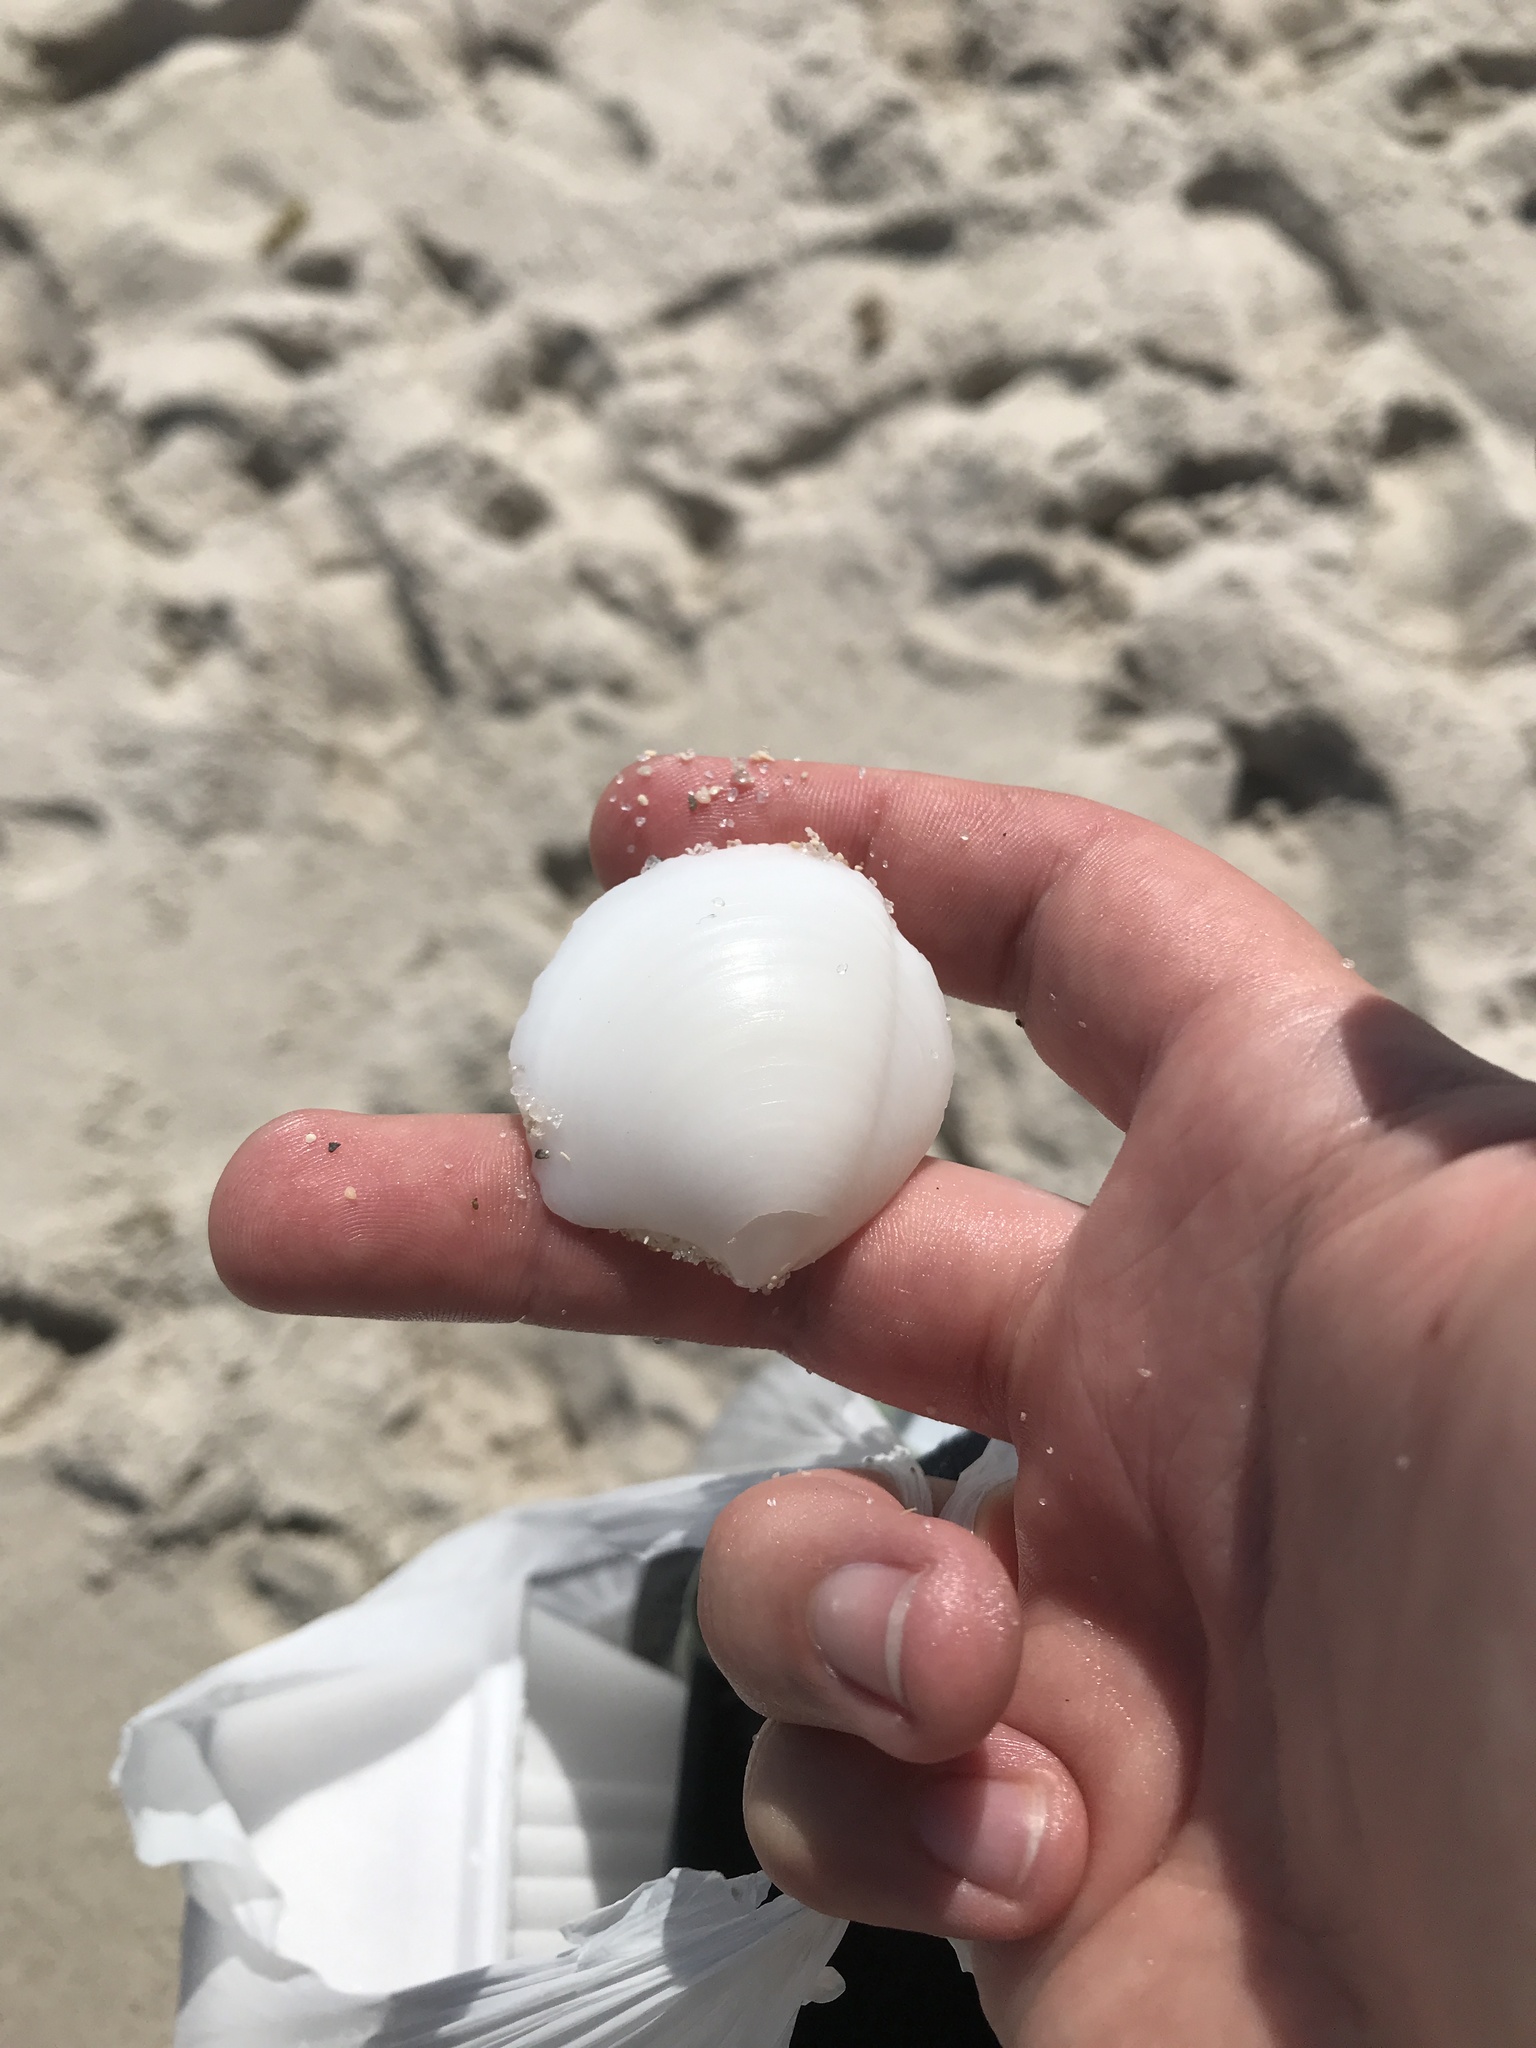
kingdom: Animalia
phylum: Mollusca
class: Bivalvia
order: Lucinida
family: Lucinidae
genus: Lucina
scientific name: Lucina pensylvanica
